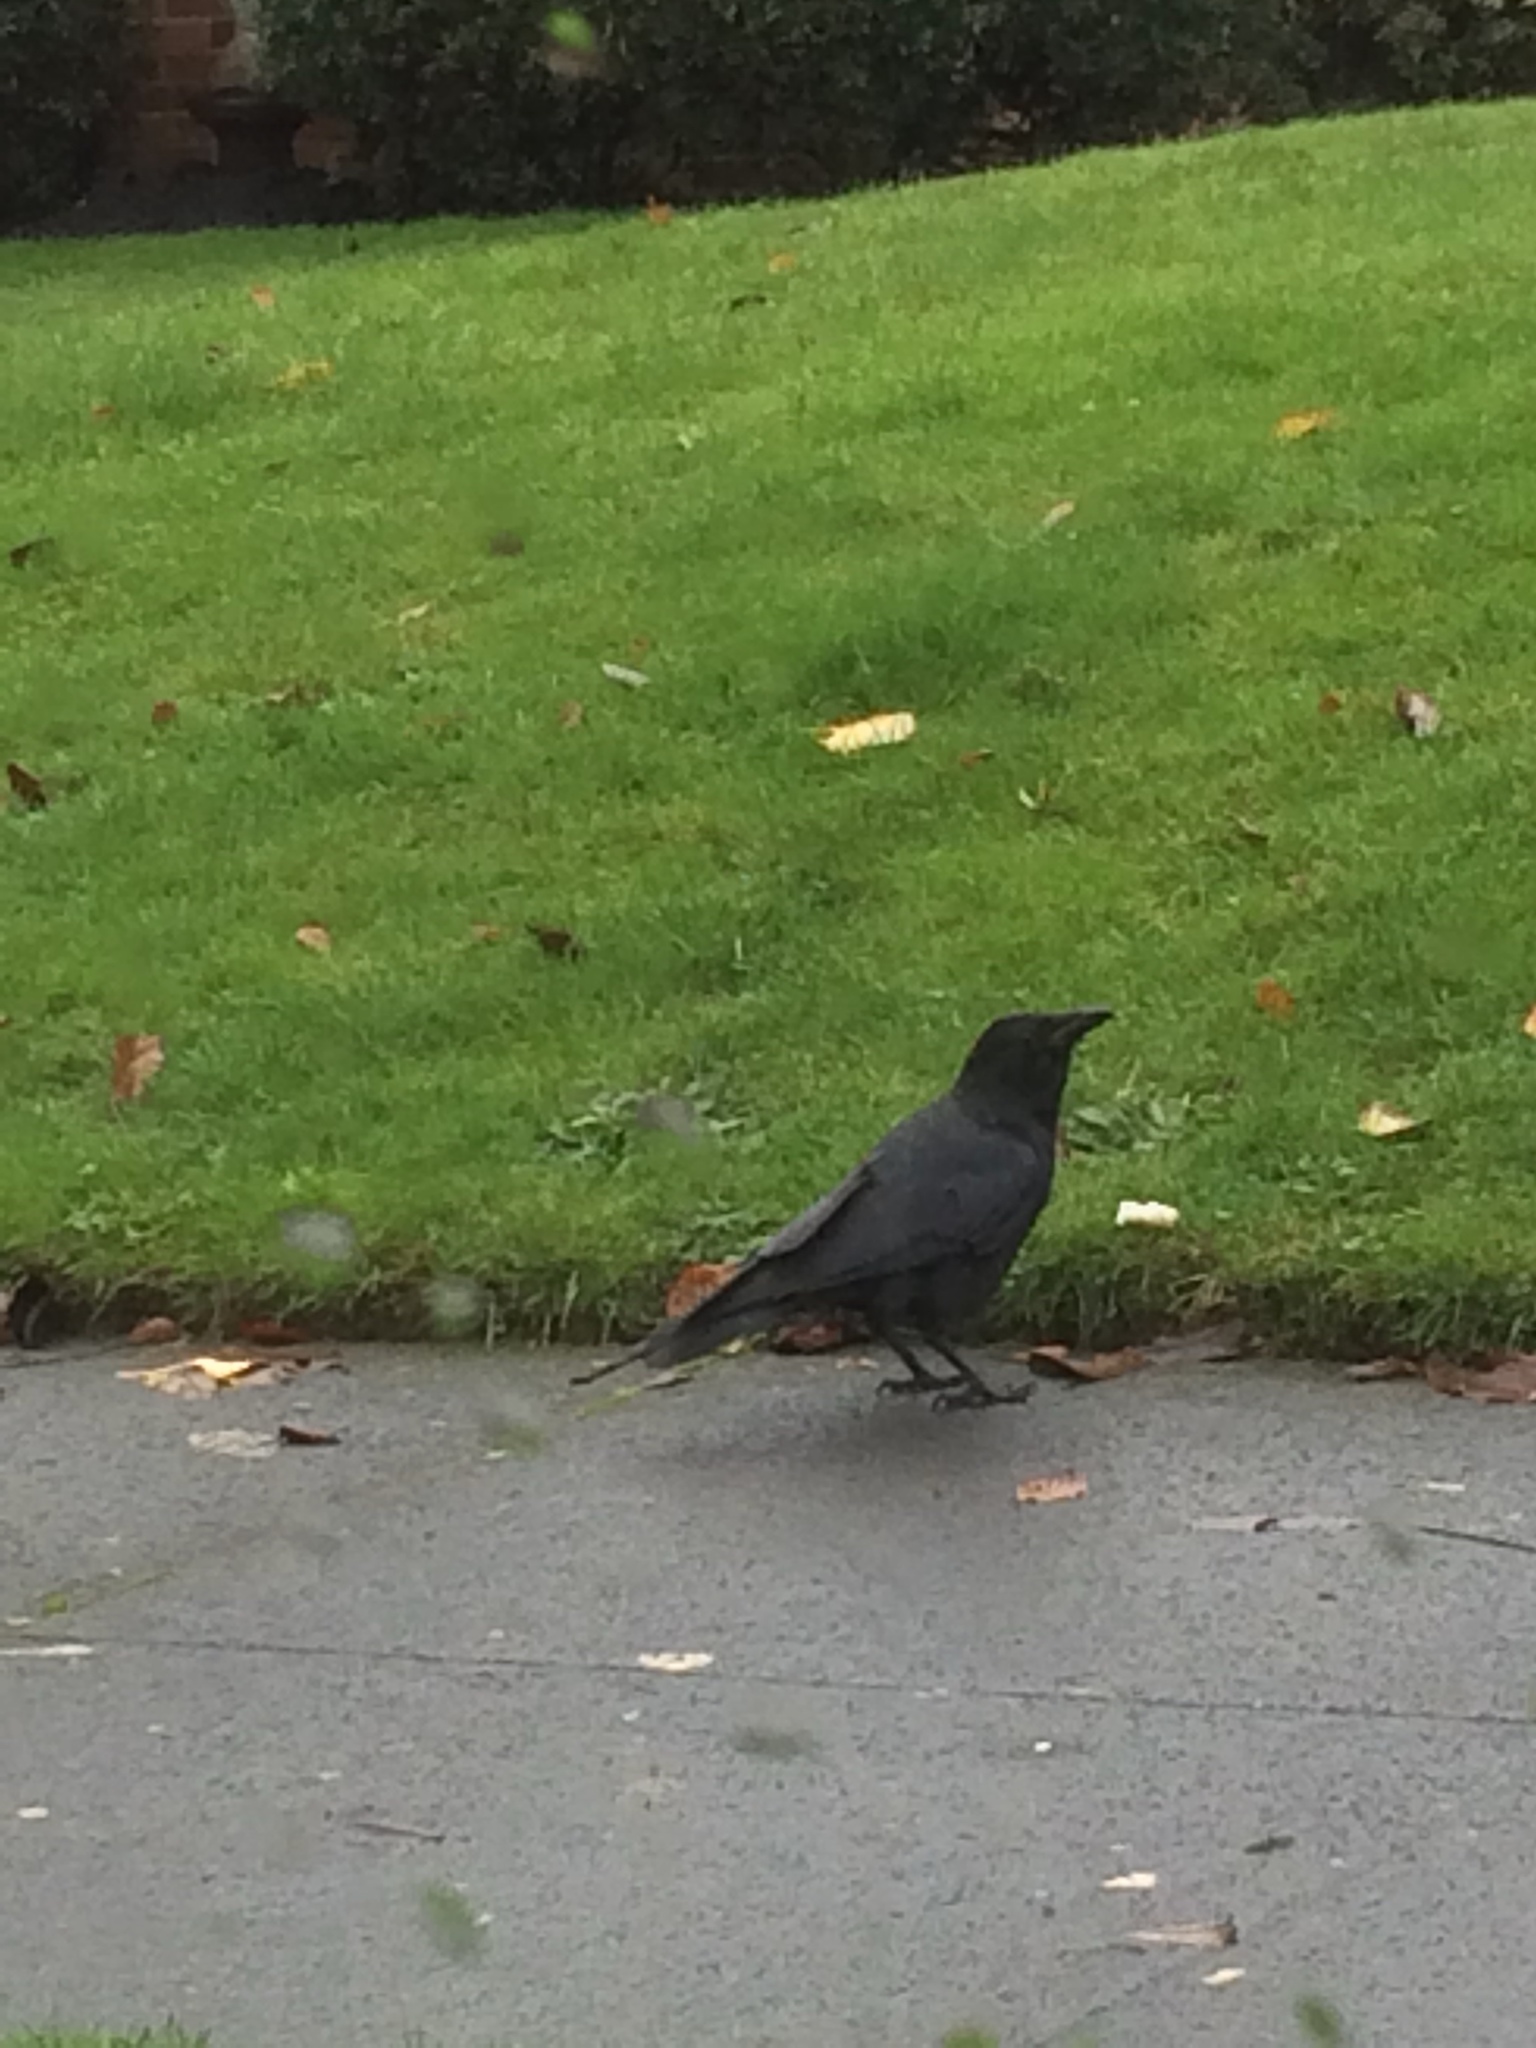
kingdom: Animalia
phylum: Chordata
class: Aves
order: Passeriformes
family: Corvidae
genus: Corvus
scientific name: Corvus brachyrhynchos
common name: American crow
